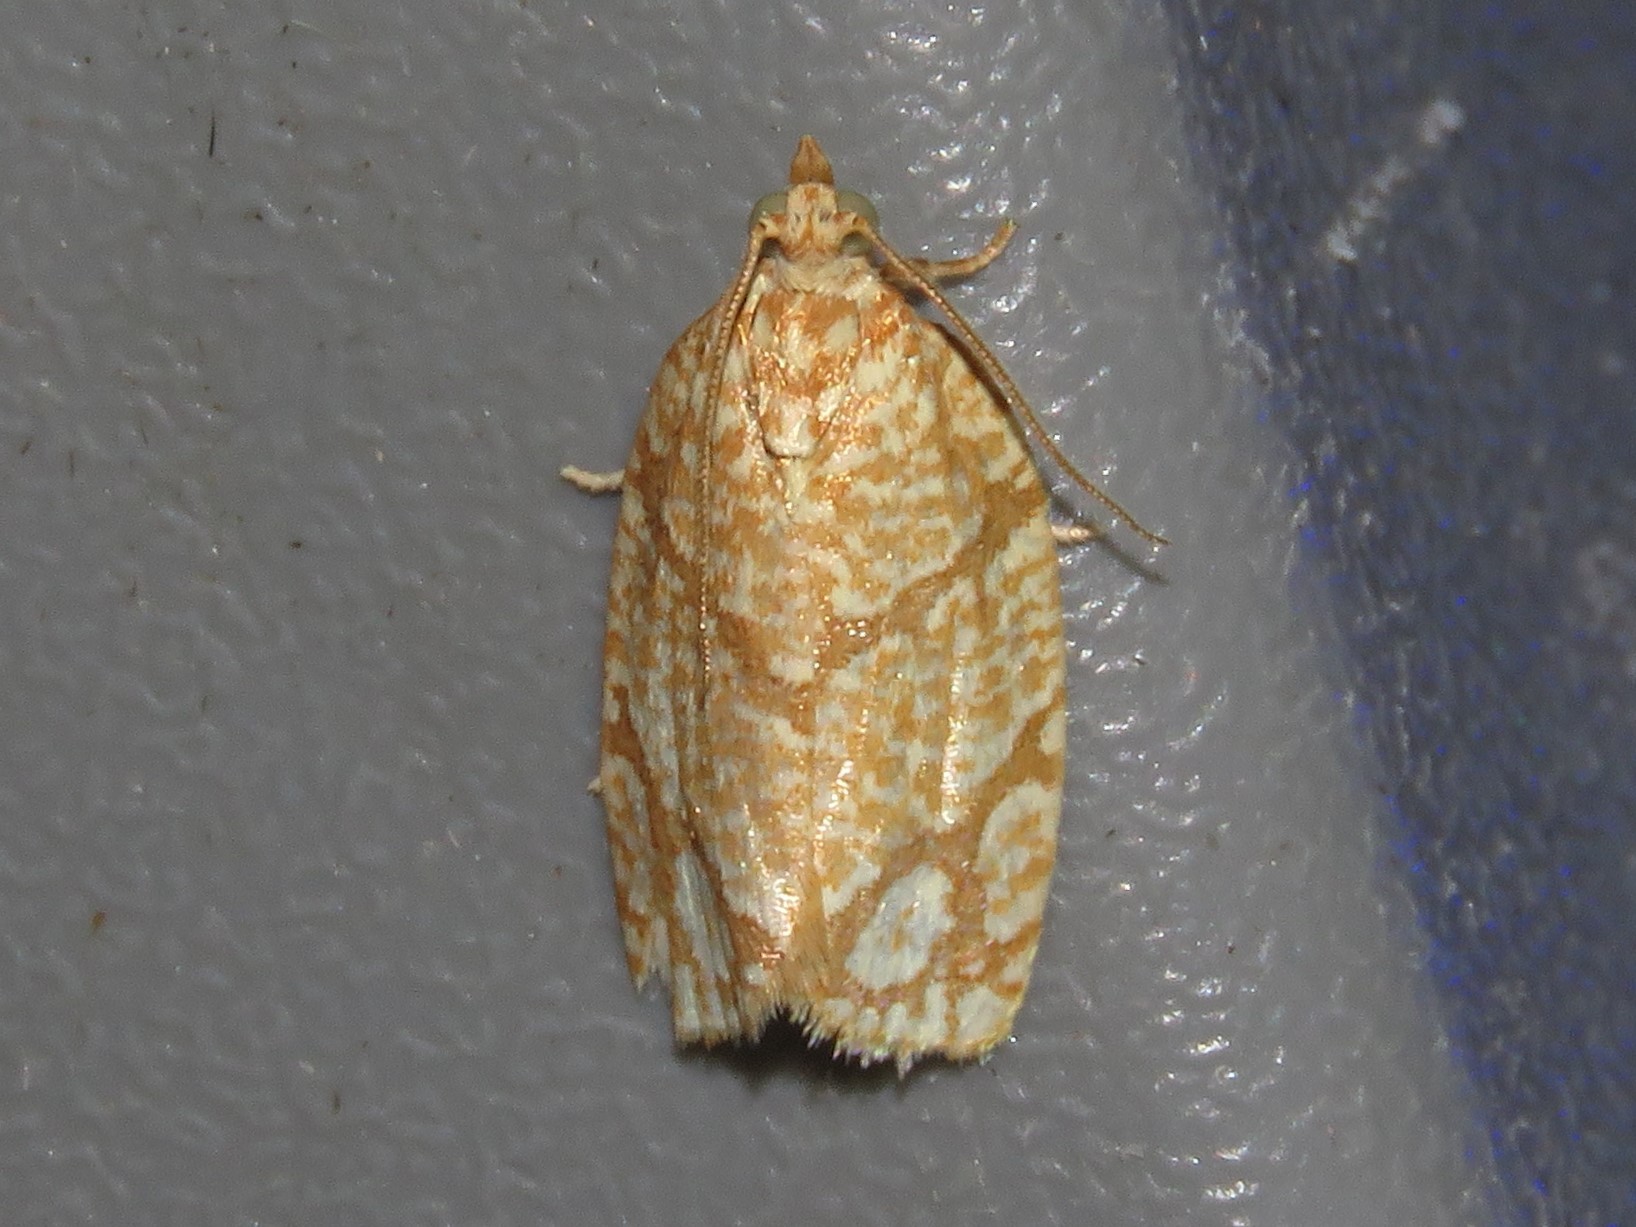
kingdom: Animalia
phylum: Arthropoda
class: Insecta
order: Lepidoptera
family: Tortricidae
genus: Argyrotaenia
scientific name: Argyrotaenia quercifoliana
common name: Yellow-winged oak leafroller moth
